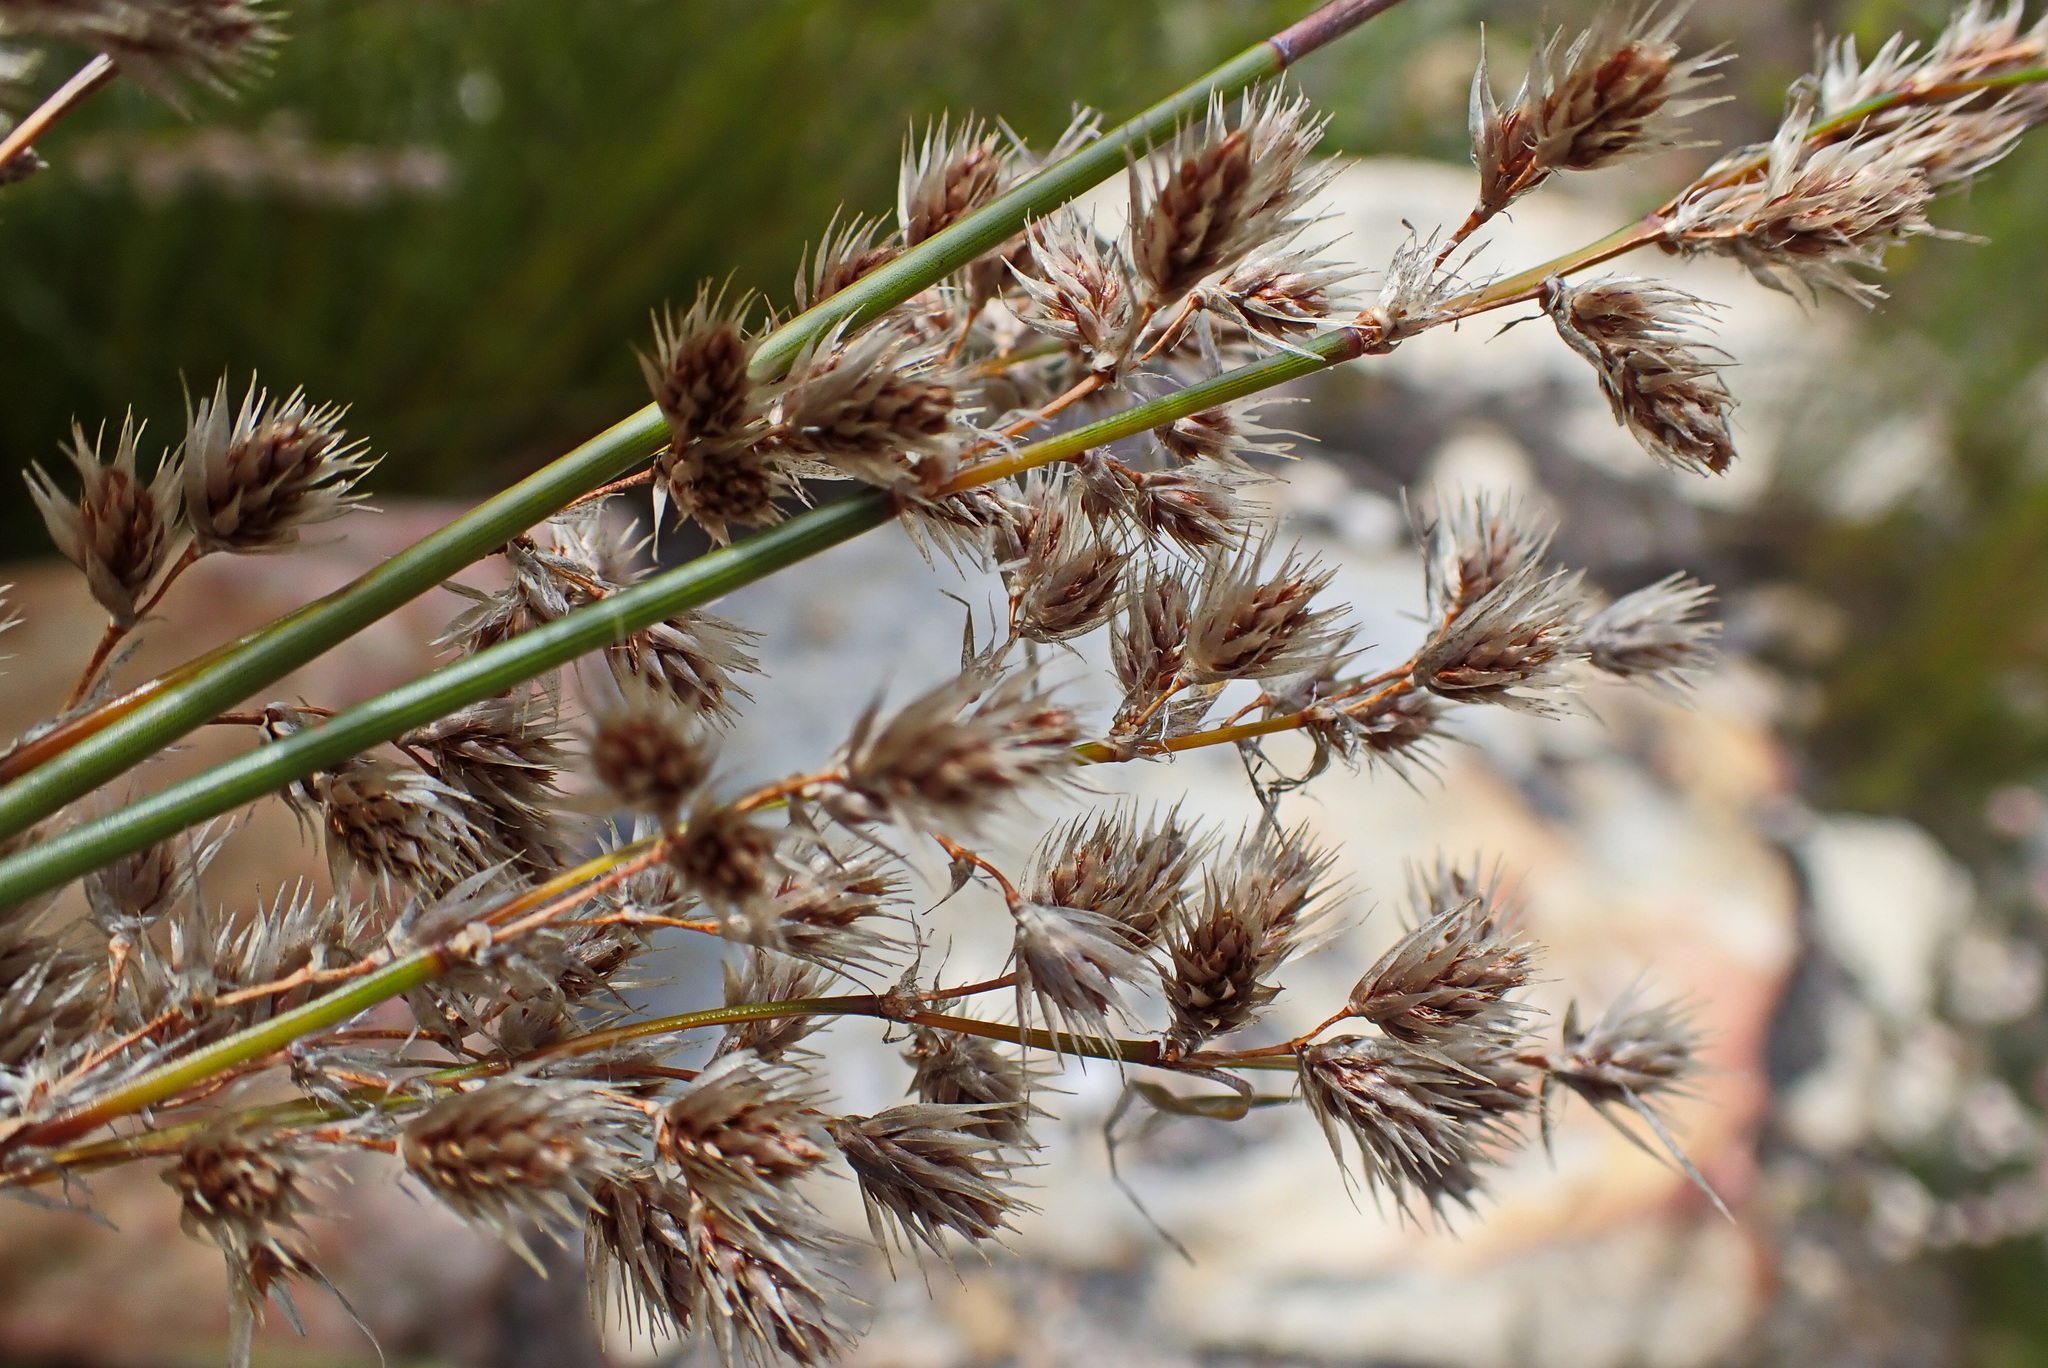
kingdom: Plantae
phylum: Tracheophyta
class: Liliopsida
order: Poales
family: Restionaceae
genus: Hypodiscus
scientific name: Hypodiscus argenteus
